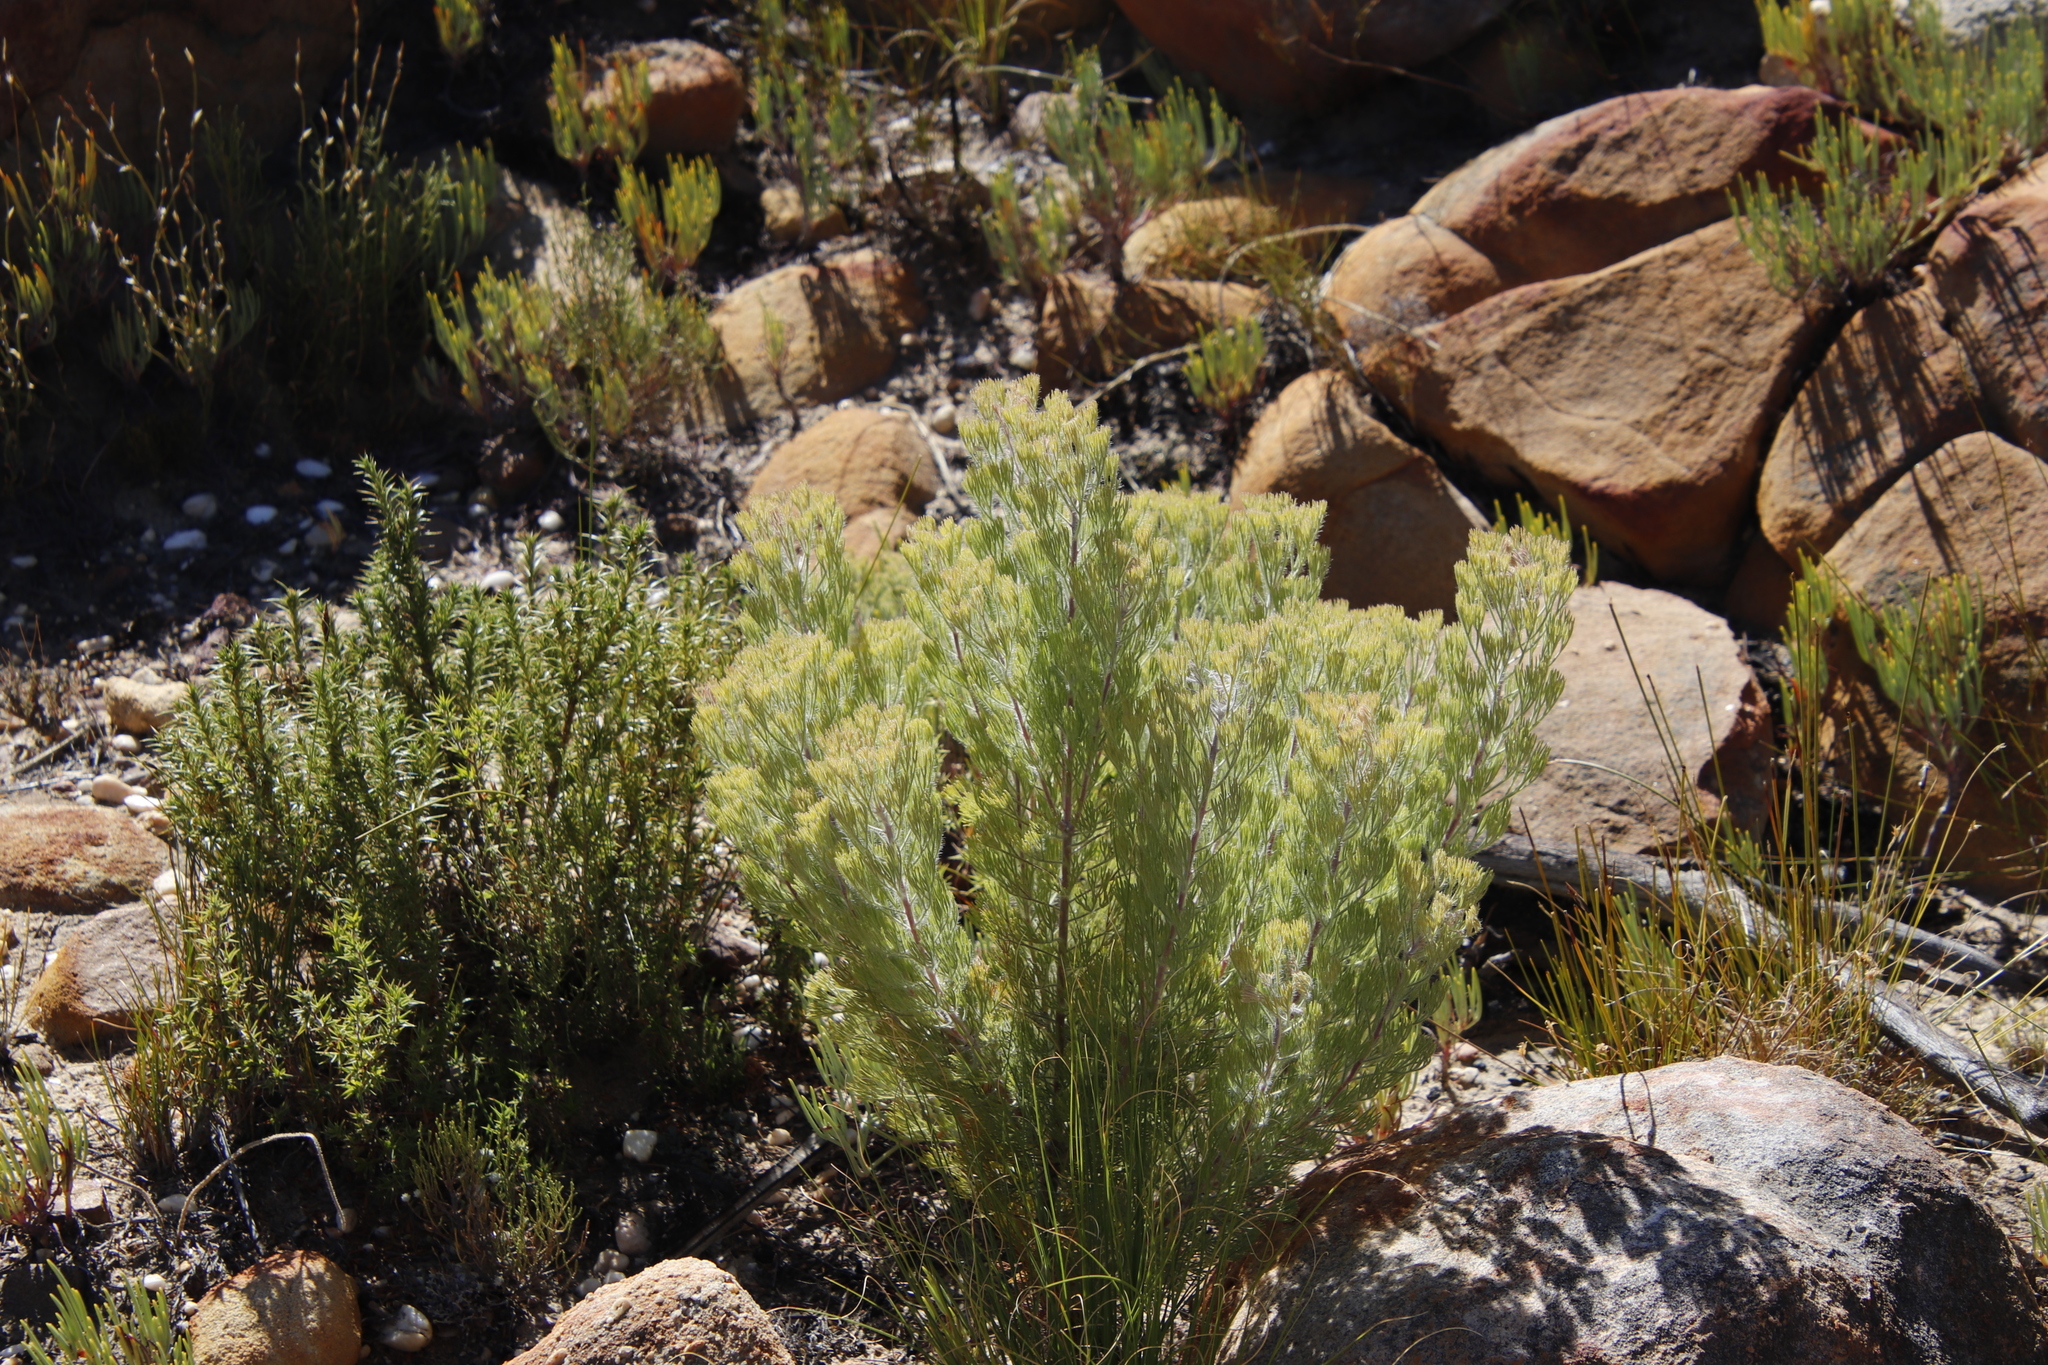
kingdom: Plantae
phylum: Tracheophyta
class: Magnoliopsida
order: Proteales
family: Proteaceae
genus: Paranomus
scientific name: Paranomus tomentosus
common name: Hairy-leaf tree sceptre
